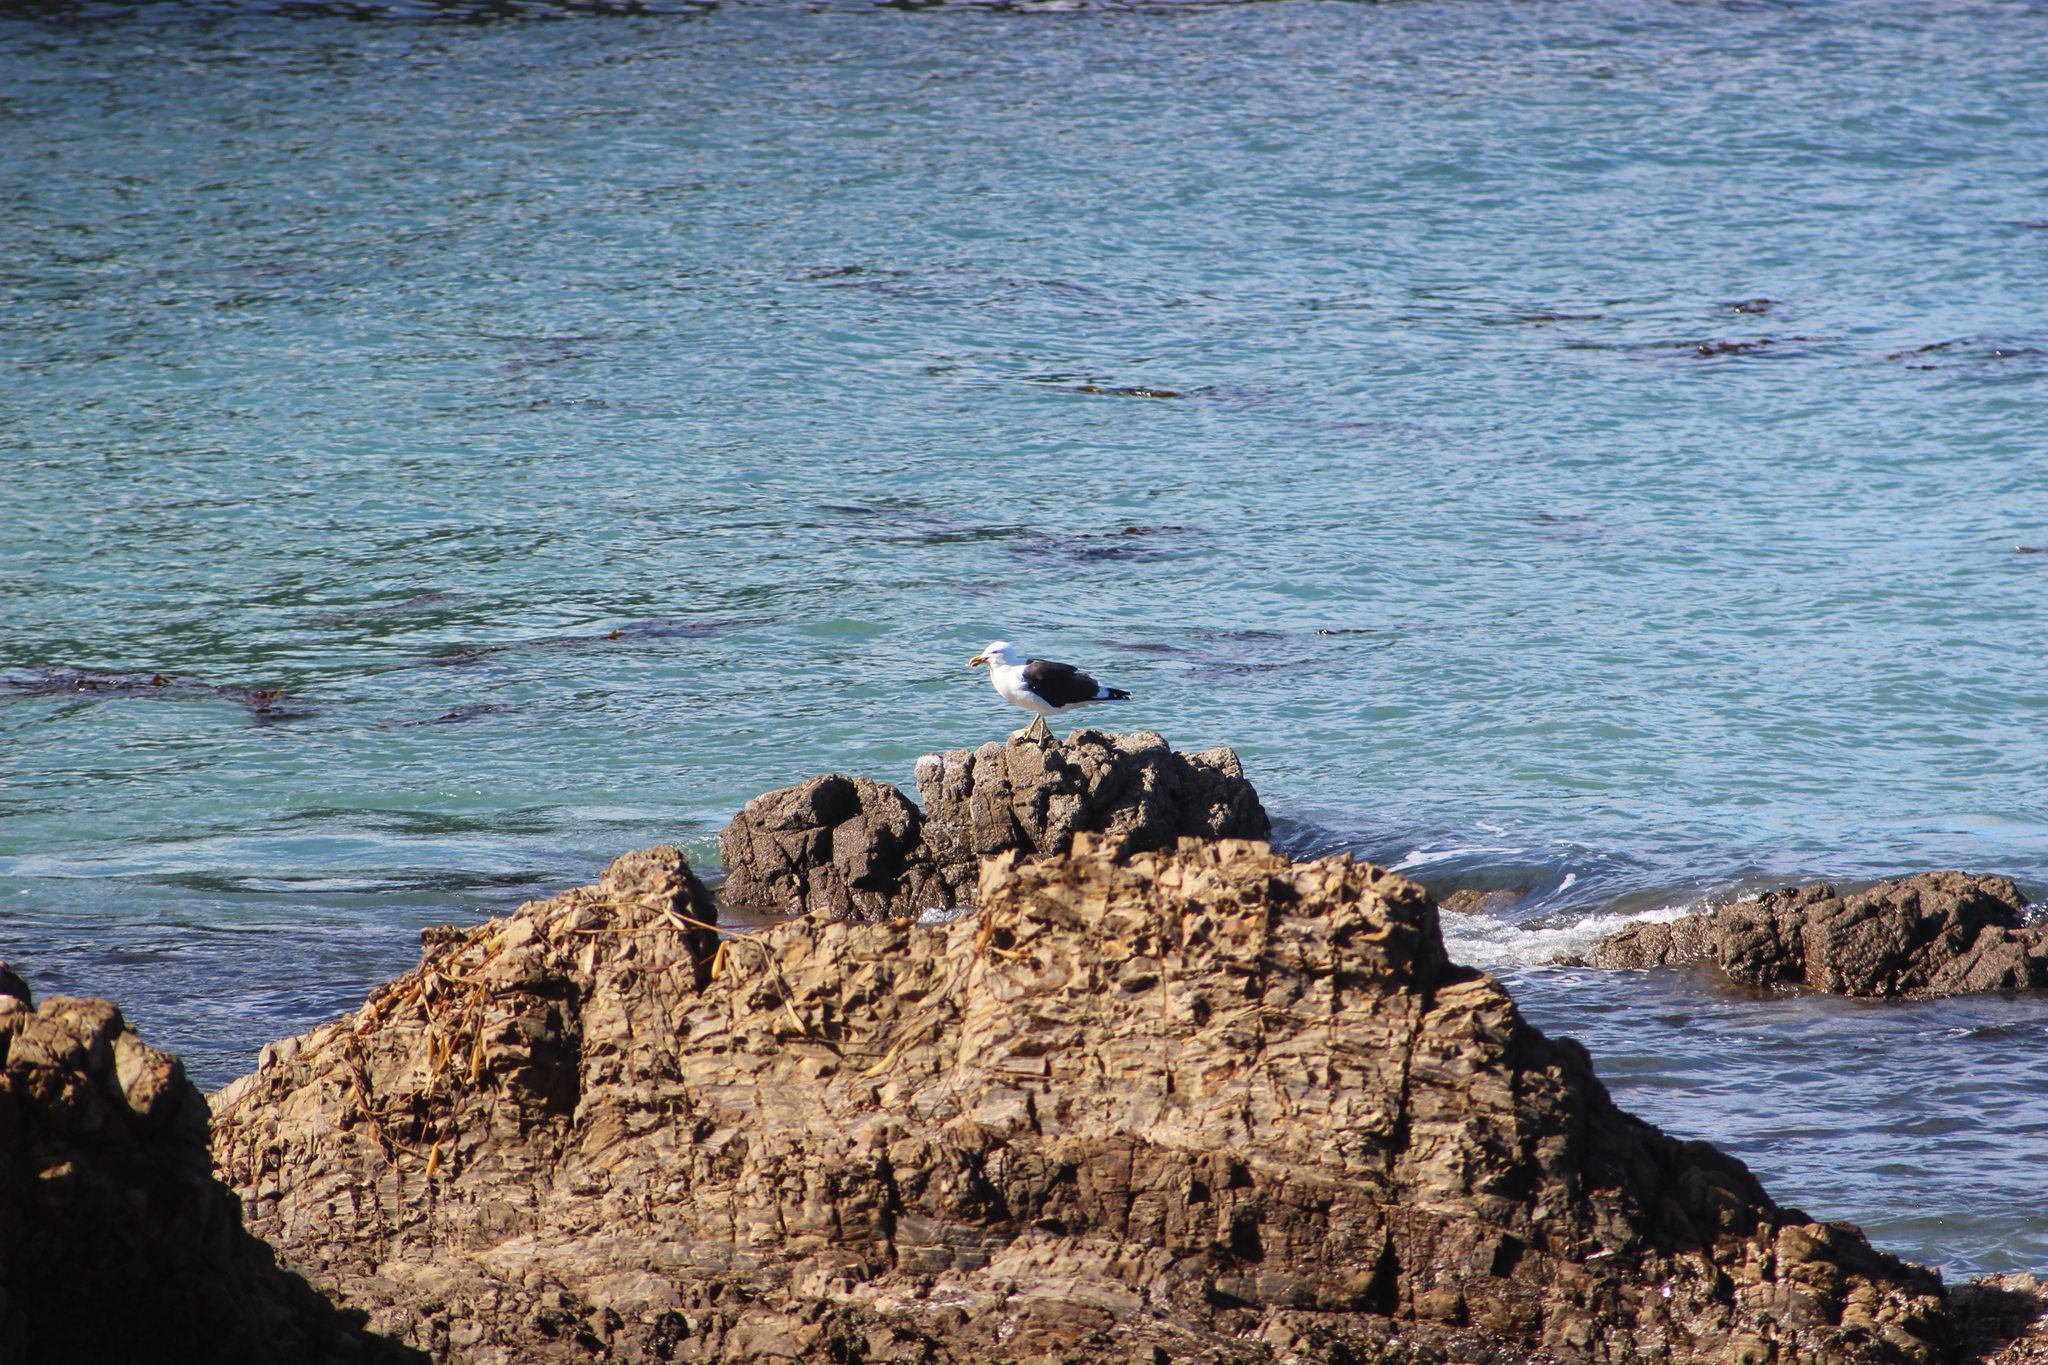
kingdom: Animalia
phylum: Chordata
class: Aves
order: Charadriiformes
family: Laridae
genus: Larus
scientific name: Larus dominicanus
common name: Kelp gull
